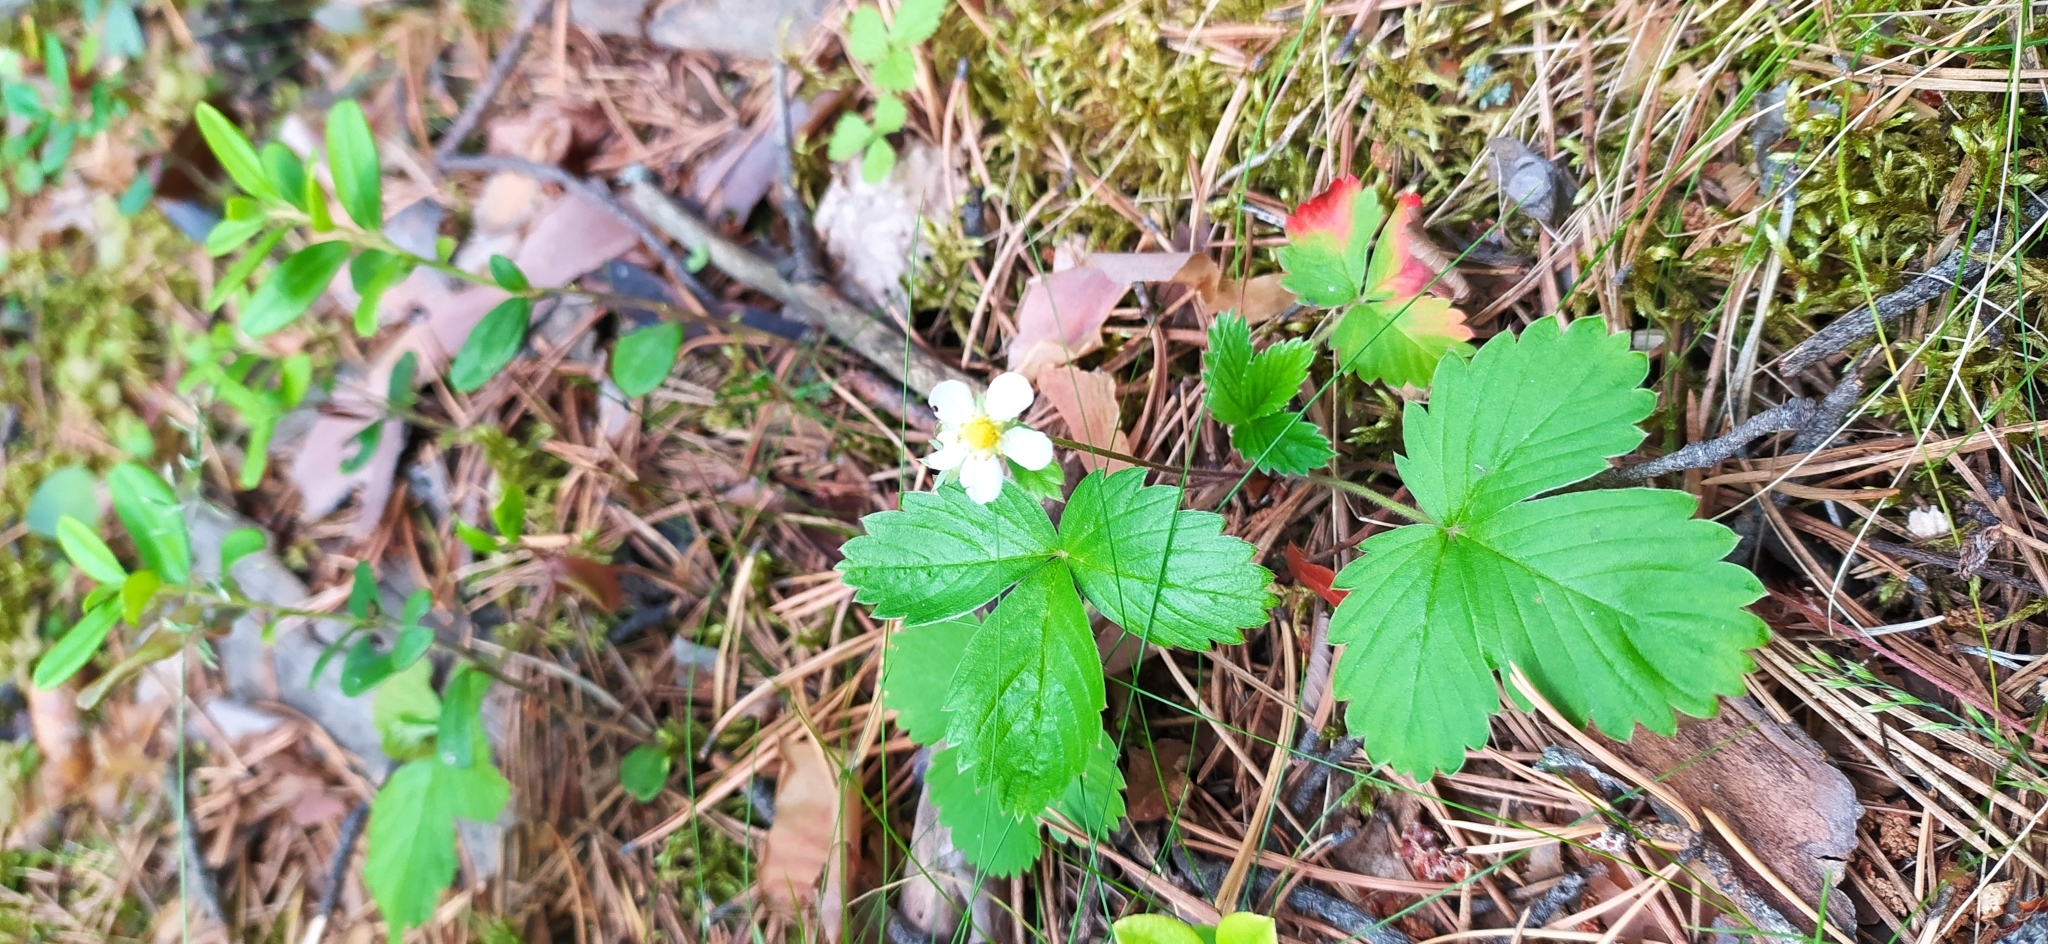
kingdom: Plantae
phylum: Tracheophyta
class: Magnoliopsida
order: Rosales
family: Rosaceae
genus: Fragaria
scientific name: Fragaria vesca
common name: Wild strawberry
